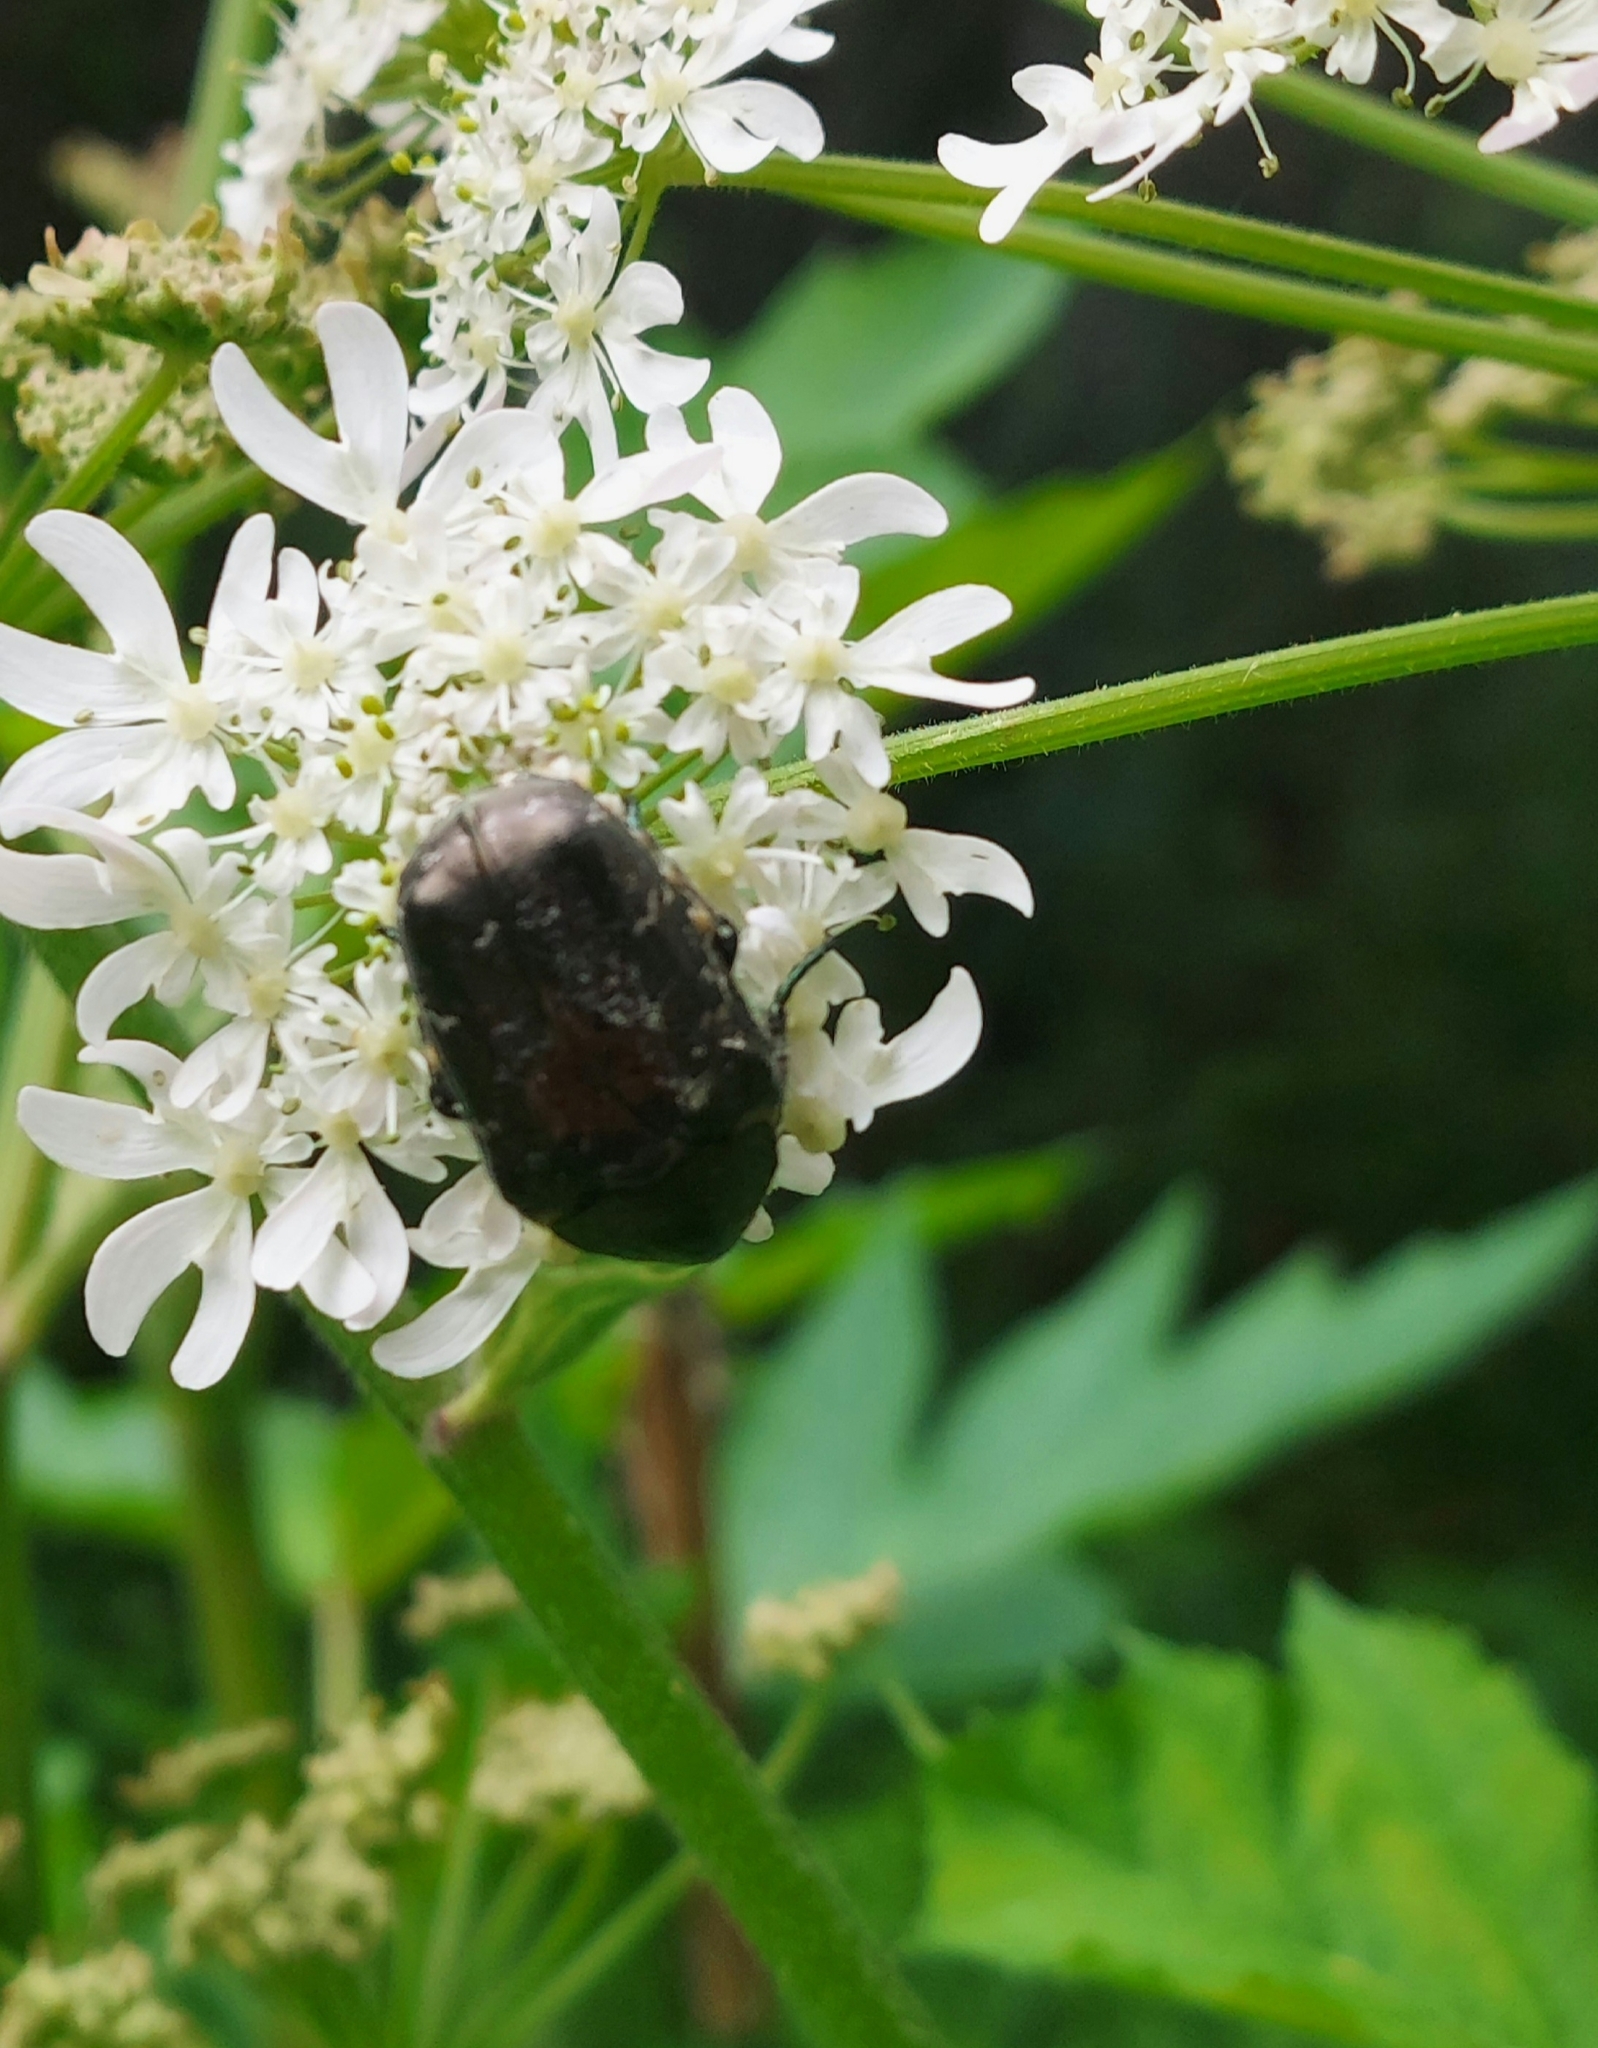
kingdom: Animalia
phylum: Arthropoda
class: Insecta
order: Coleoptera
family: Scarabaeidae
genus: Protaetia
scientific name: Protaetia marmorata
